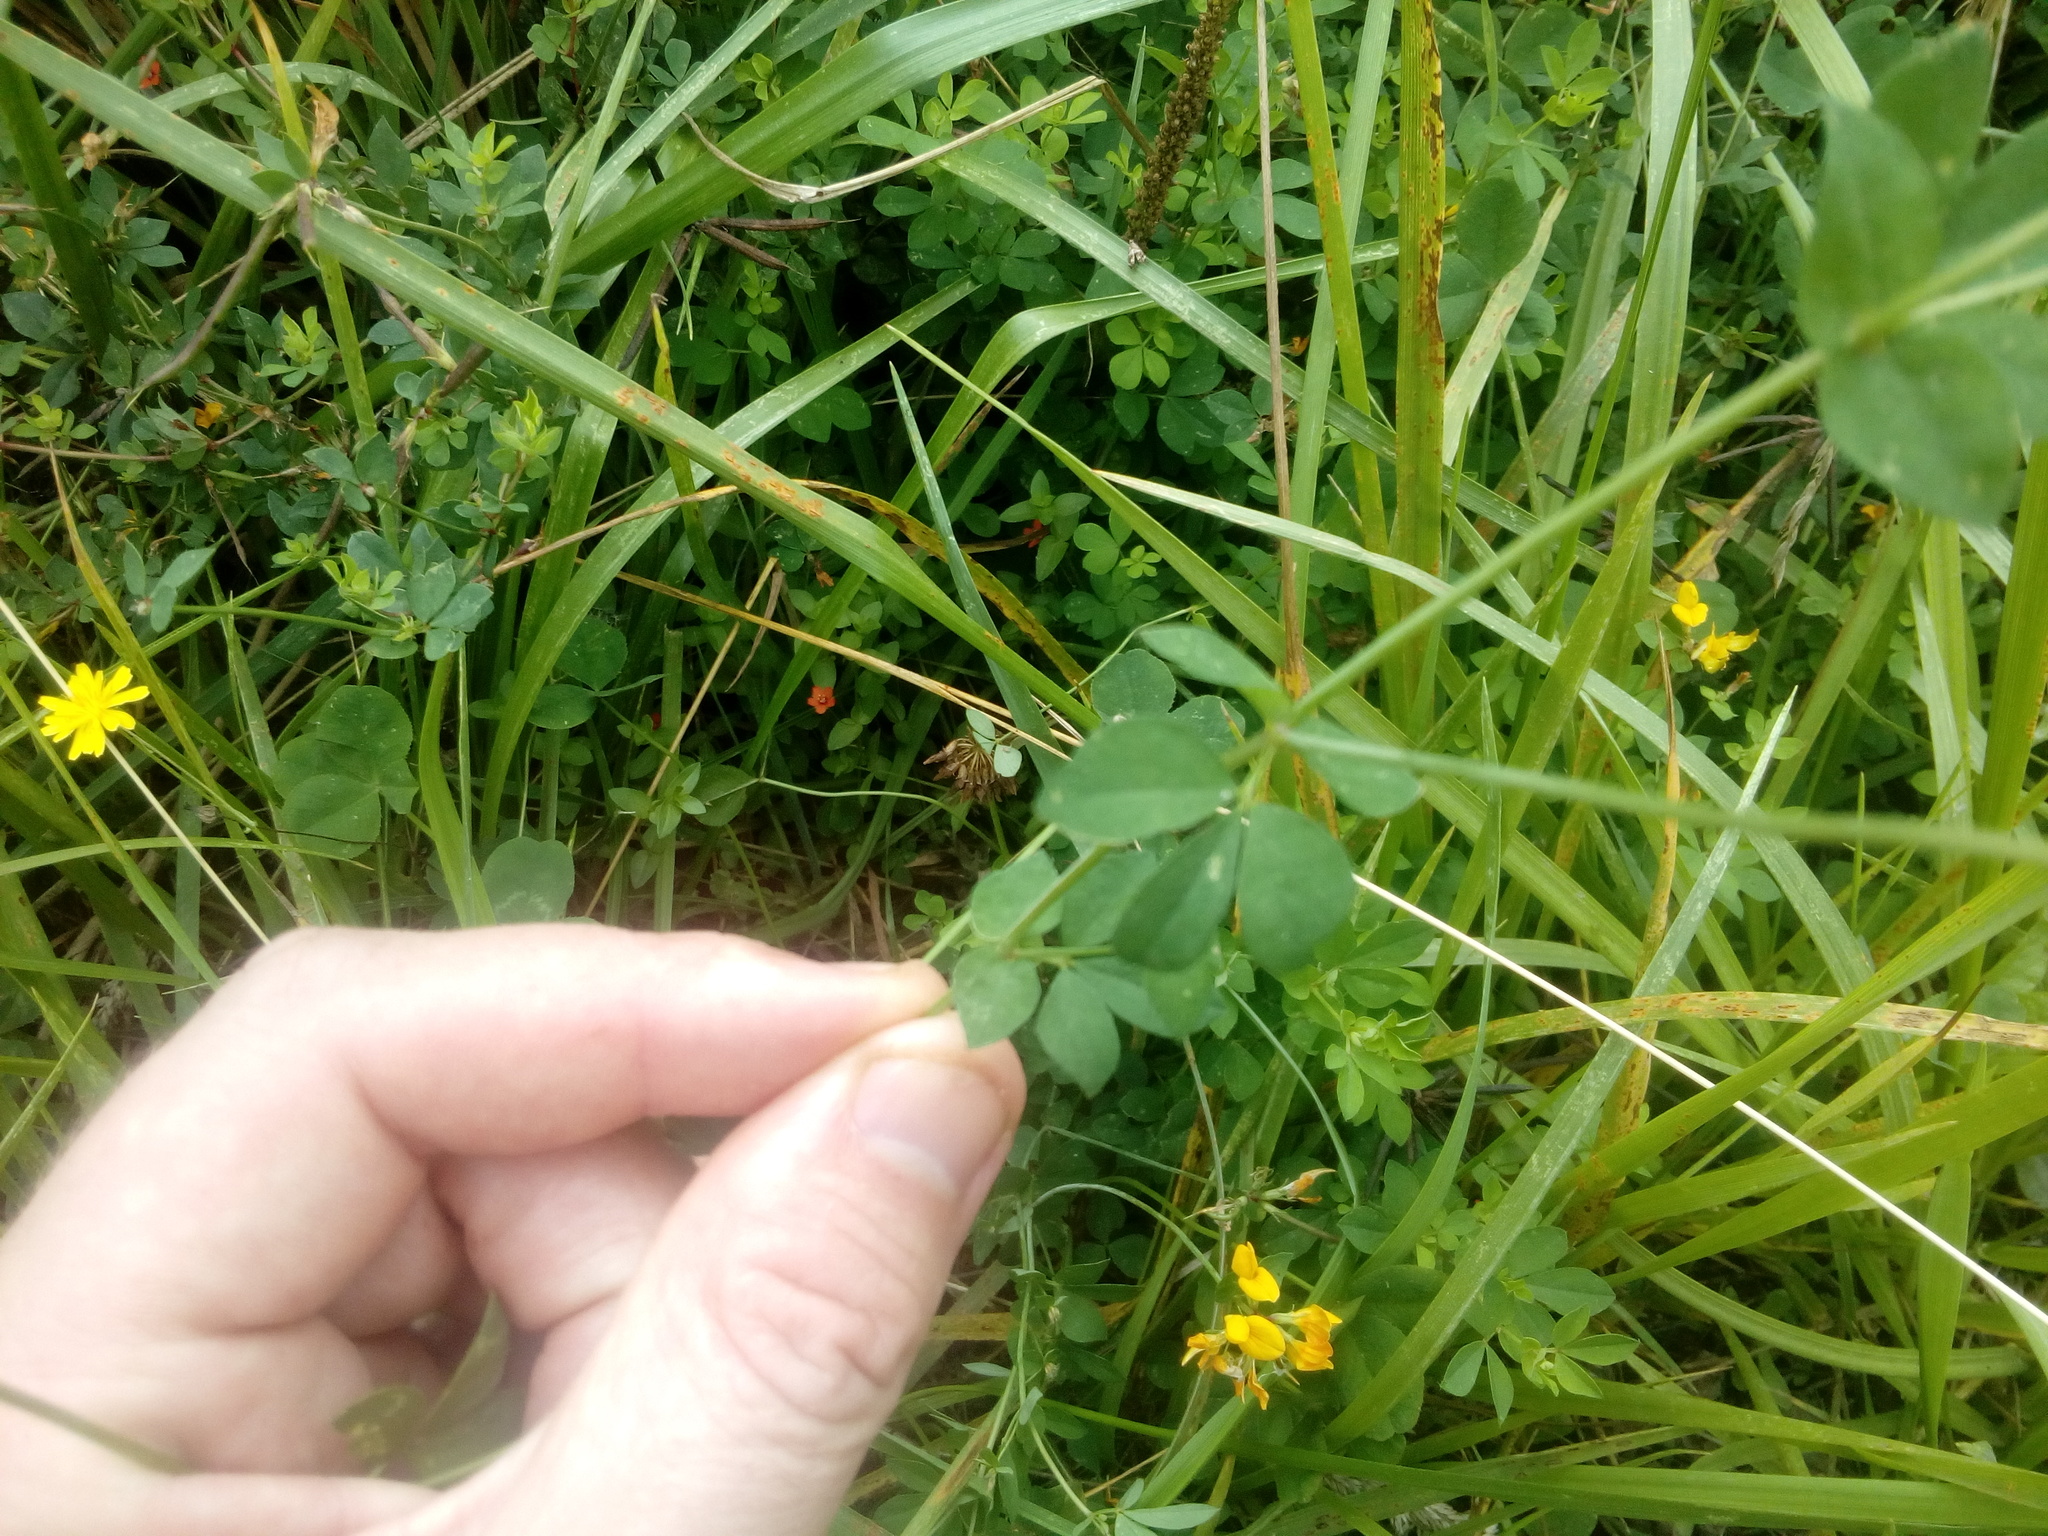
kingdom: Plantae
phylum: Tracheophyta
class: Magnoliopsida
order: Fabales
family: Fabaceae
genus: Lotus
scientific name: Lotus pedunculatus
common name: Greater birdsfoot-trefoil
